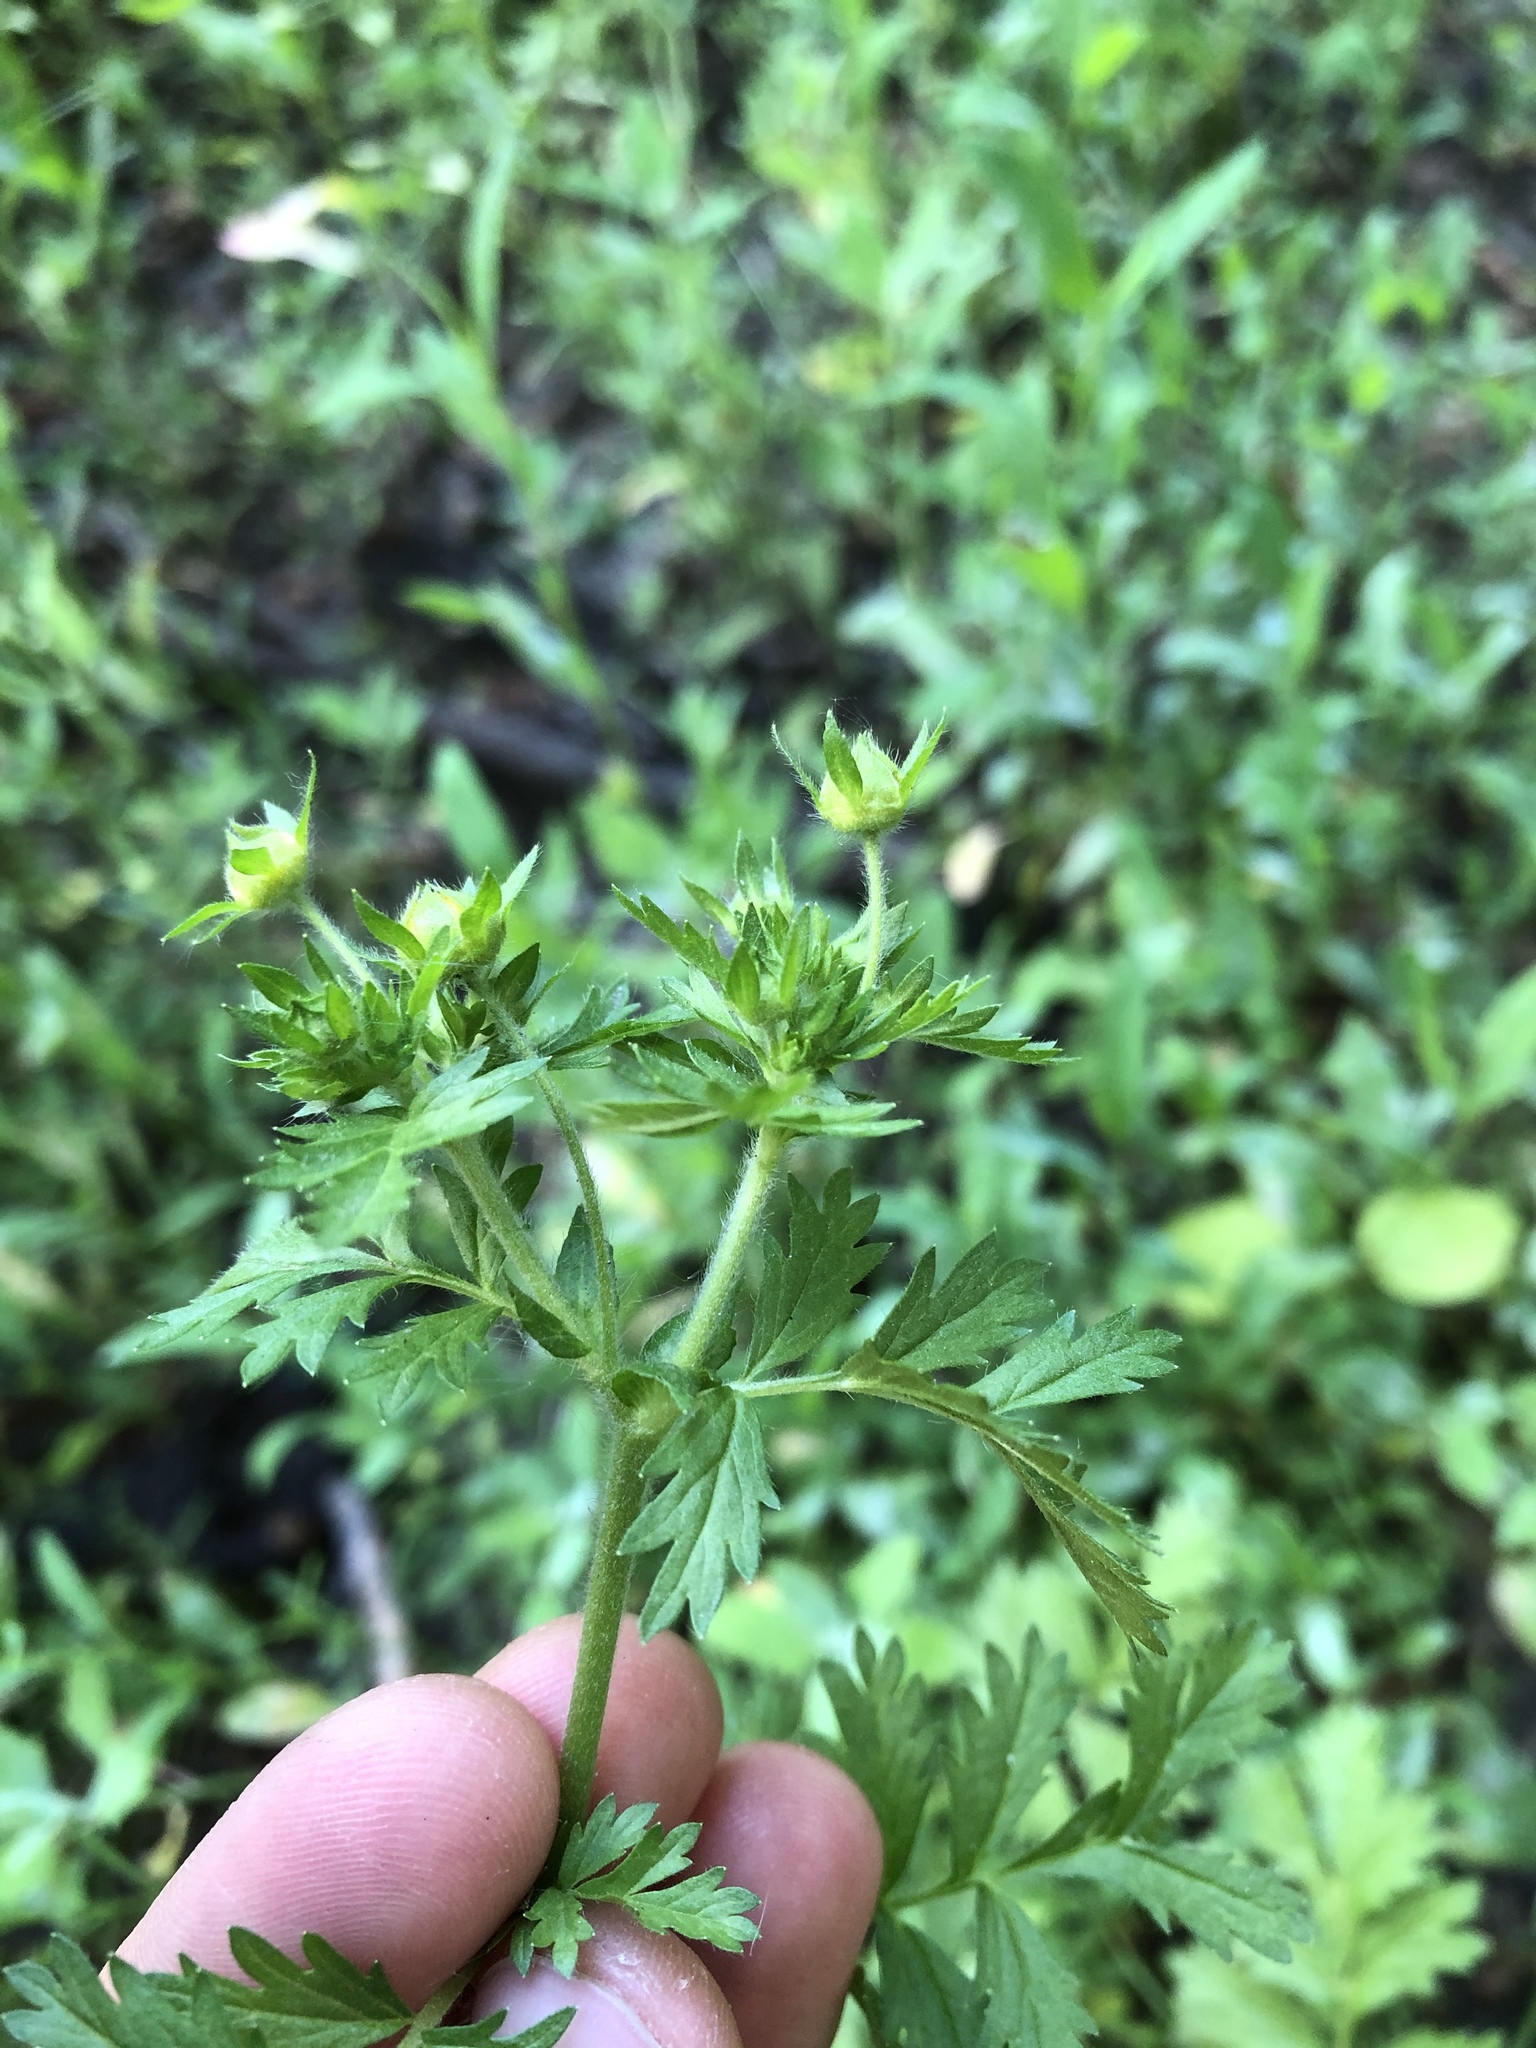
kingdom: Plantae
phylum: Tracheophyta
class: Magnoliopsida
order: Rosales
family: Rosaceae
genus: Potentilla
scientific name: Potentilla supina
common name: Prostrate cinquefoil
